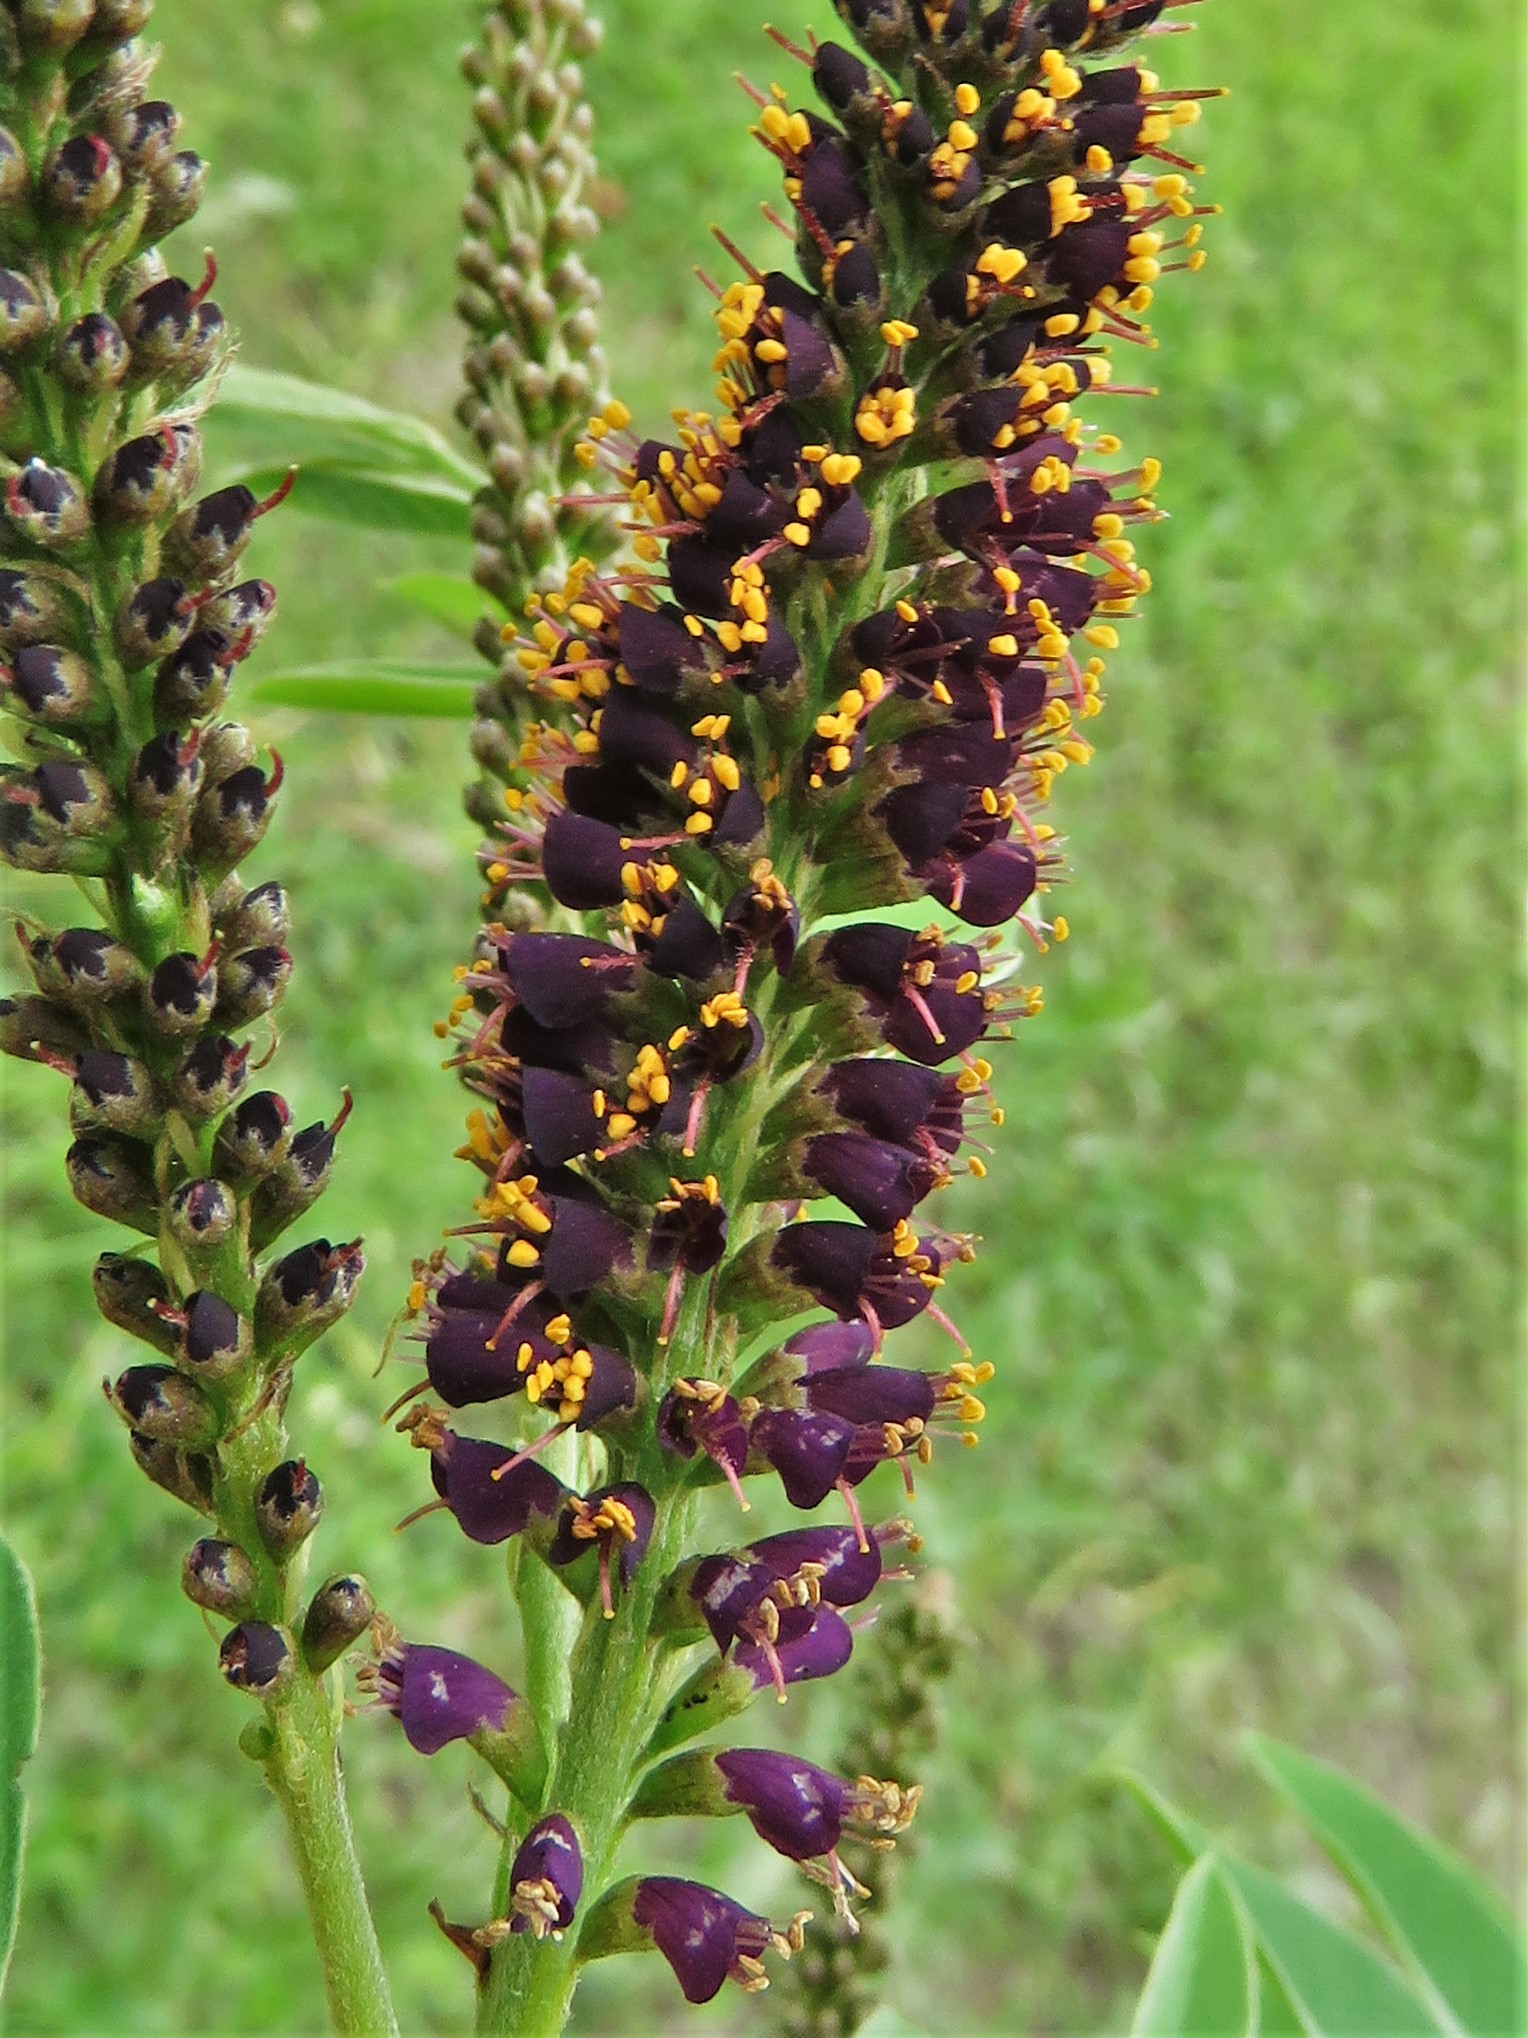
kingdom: Plantae
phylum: Tracheophyta
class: Magnoliopsida
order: Fabales
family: Fabaceae
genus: Amorpha
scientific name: Amorpha fruticosa
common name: False indigo
